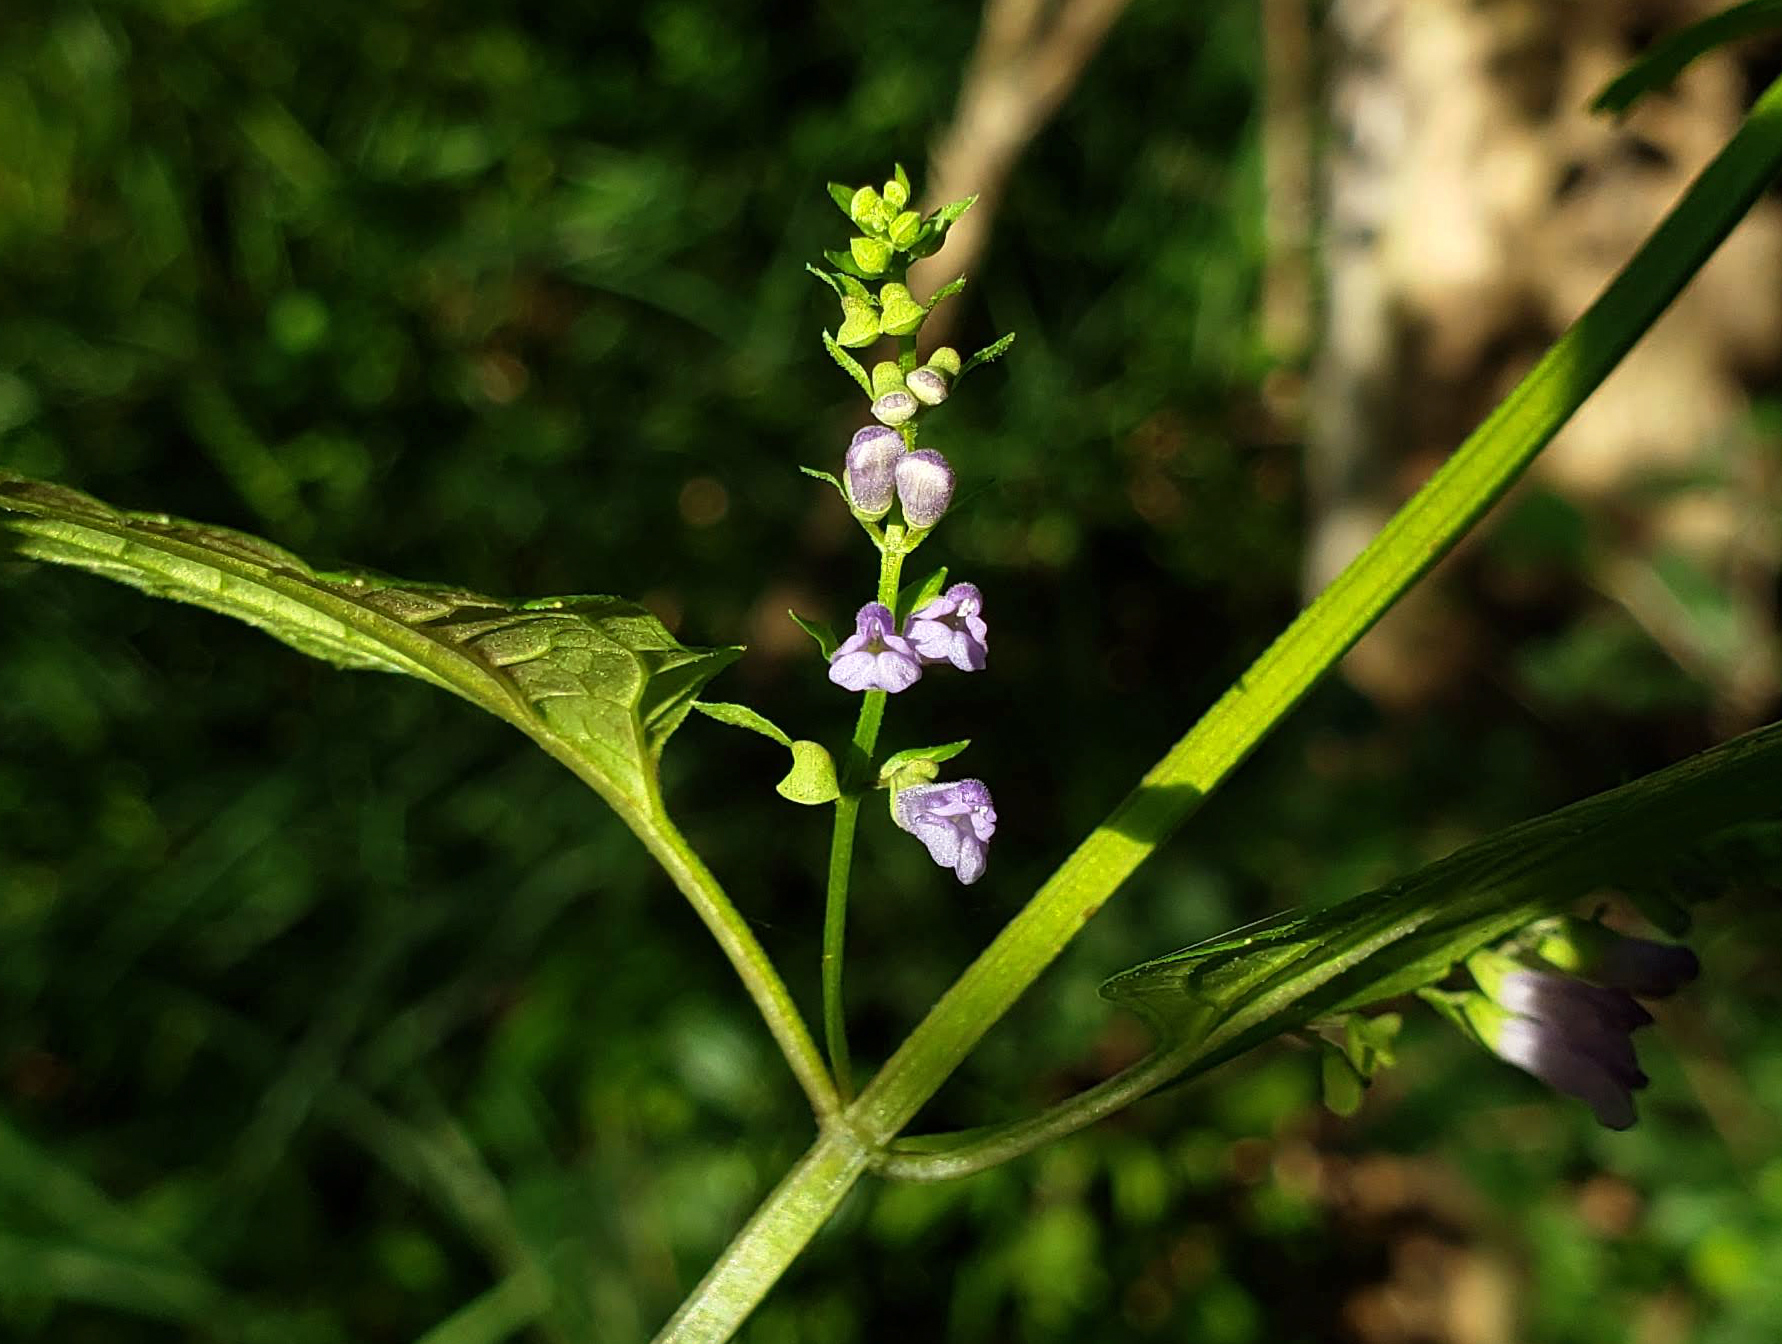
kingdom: Plantae
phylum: Tracheophyta
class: Magnoliopsida
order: Lamiales
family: Lamiaceae
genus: Scutellaria
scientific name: Scutellaria lateriflora
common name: Blue skullcap
